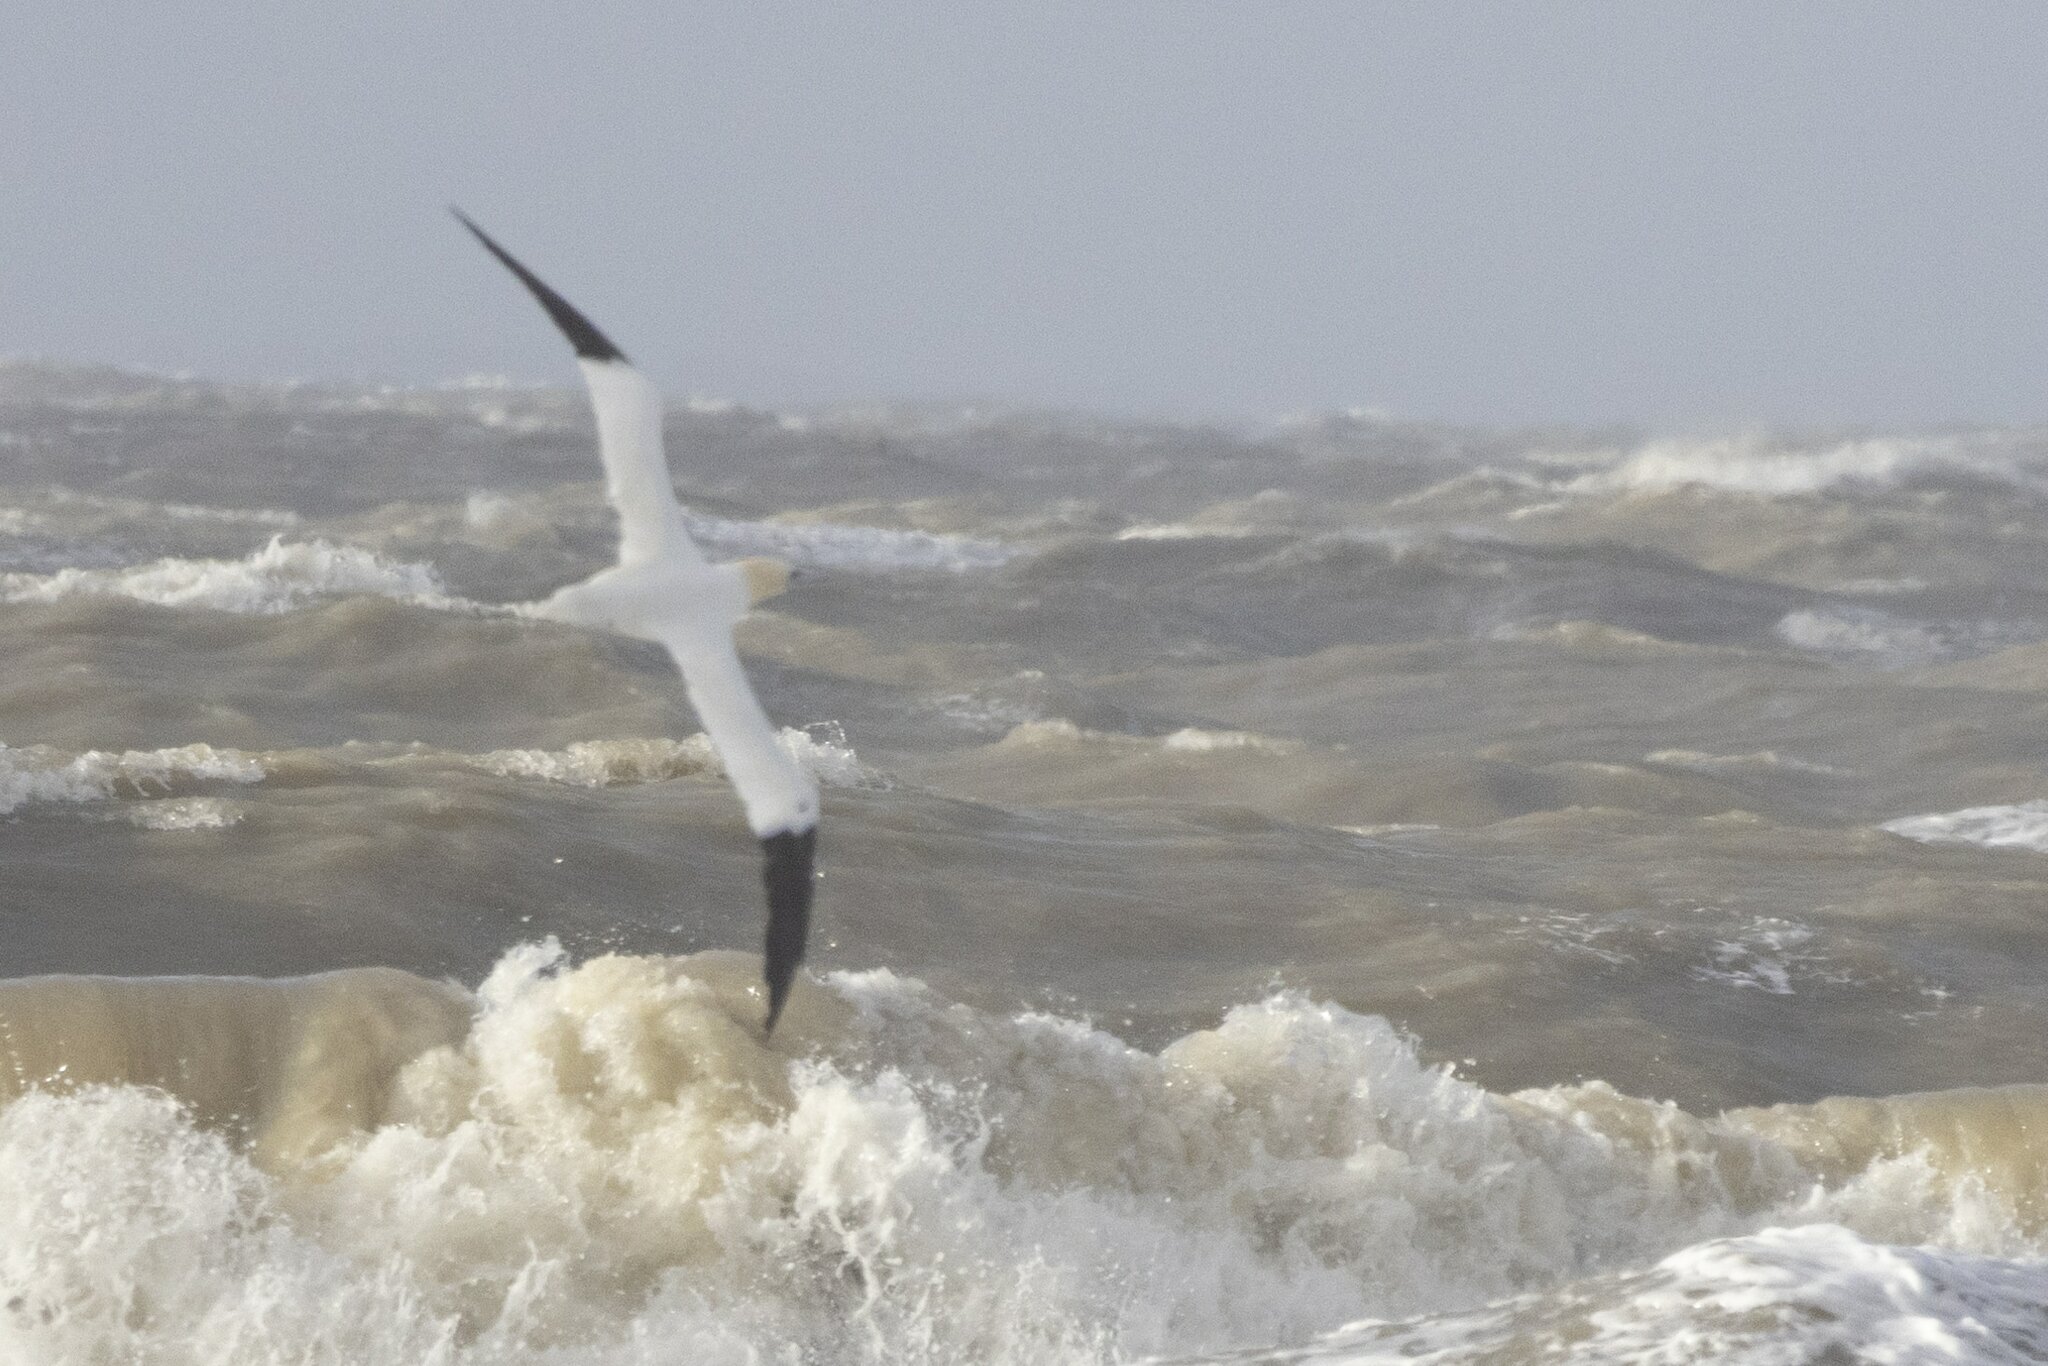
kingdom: Animalia
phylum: Chordata
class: Aves
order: Suliformes
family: Sulidae
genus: Morus
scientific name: Morus bassanus
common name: Northern gannet
